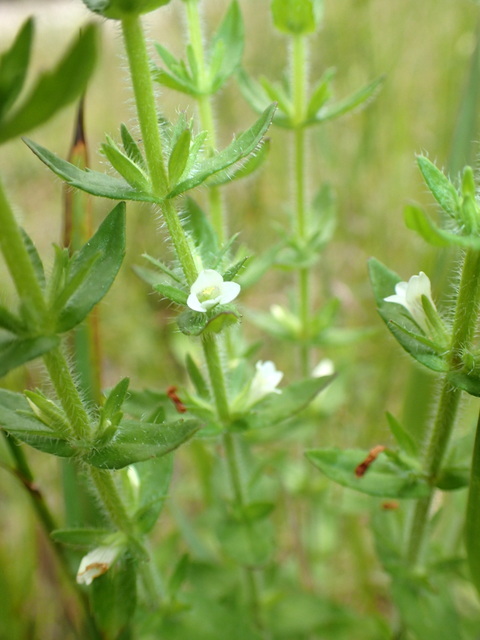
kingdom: Plantae
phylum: Tracheophyta
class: Magnoliopsida
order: Lamiales
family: Plantaginaceae
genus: Gratiola
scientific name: Gratiola pilosa
